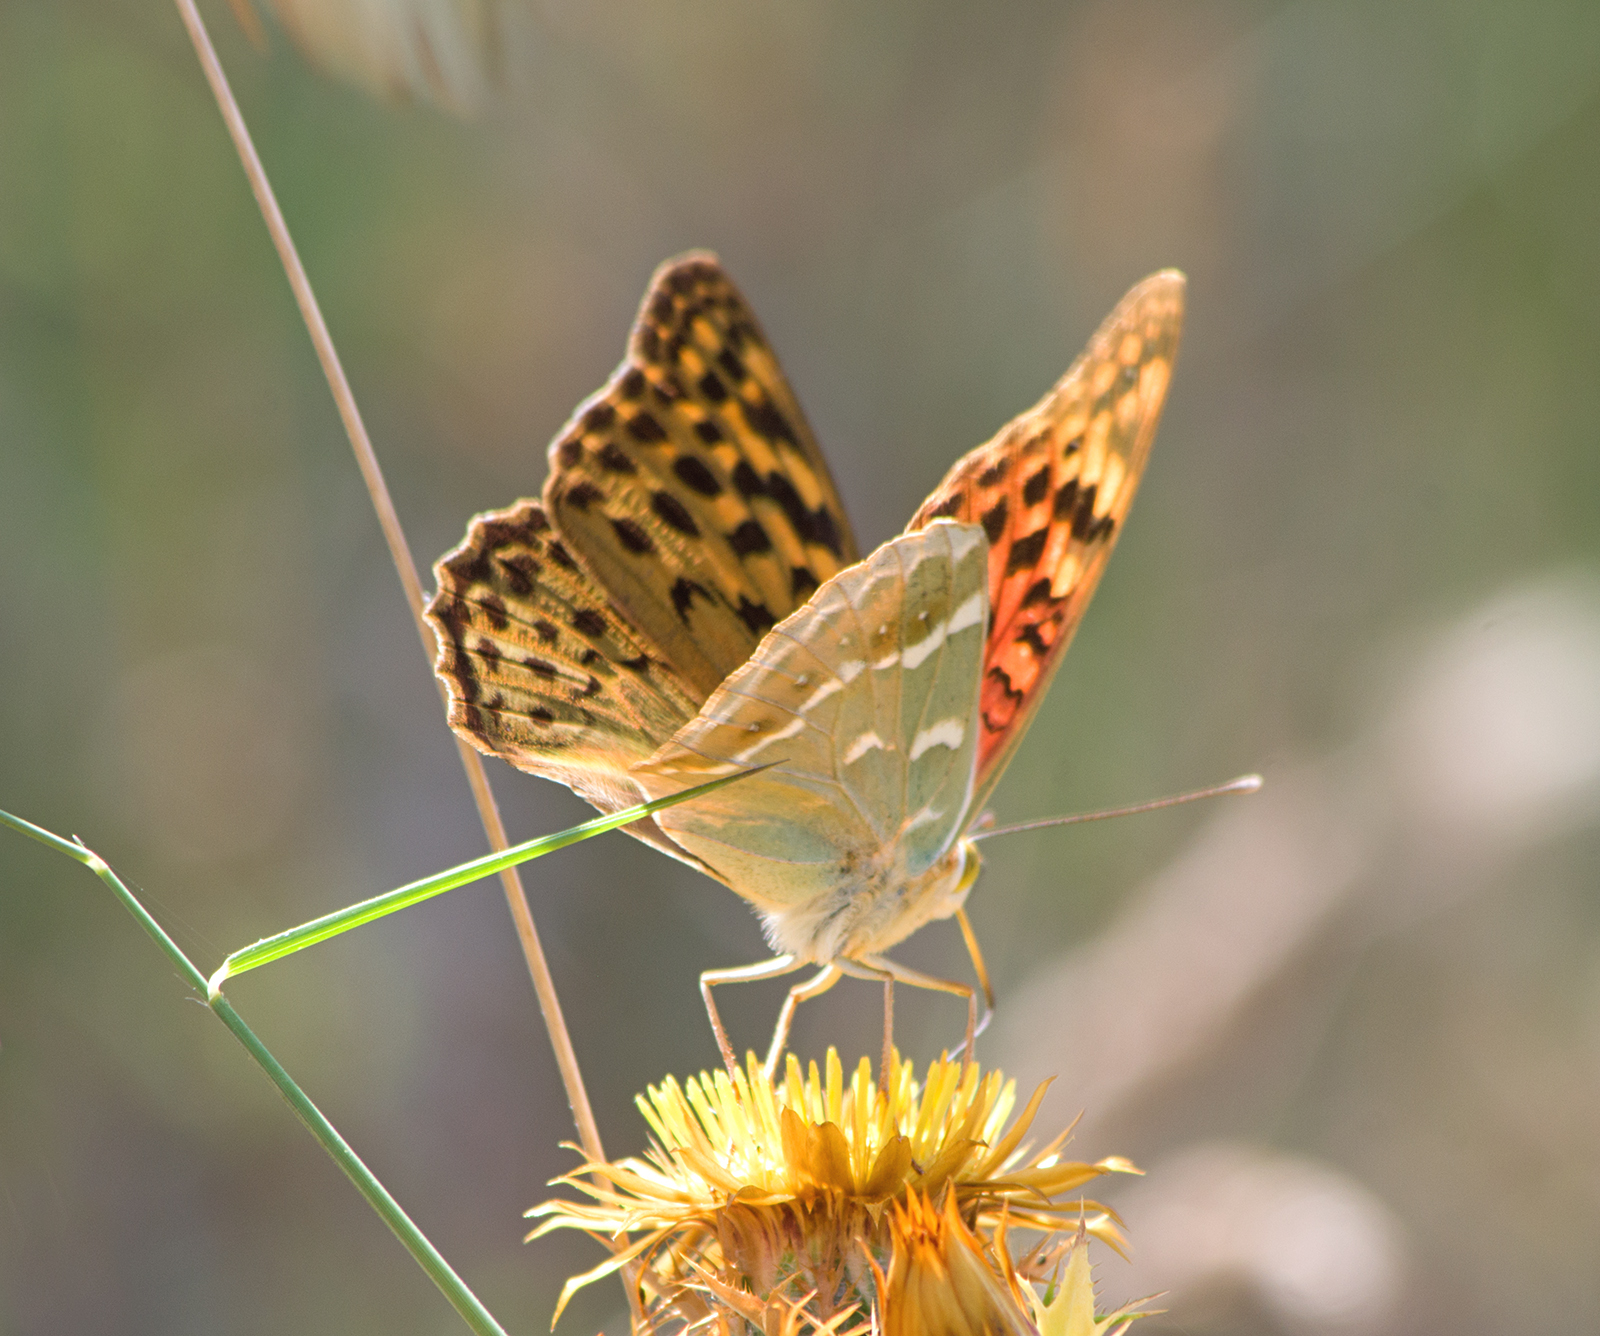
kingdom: Animalia
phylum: Arthropoda
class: Insecta
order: Lepidoptera
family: Nymphalidae
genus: Damora
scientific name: Damora pandora
